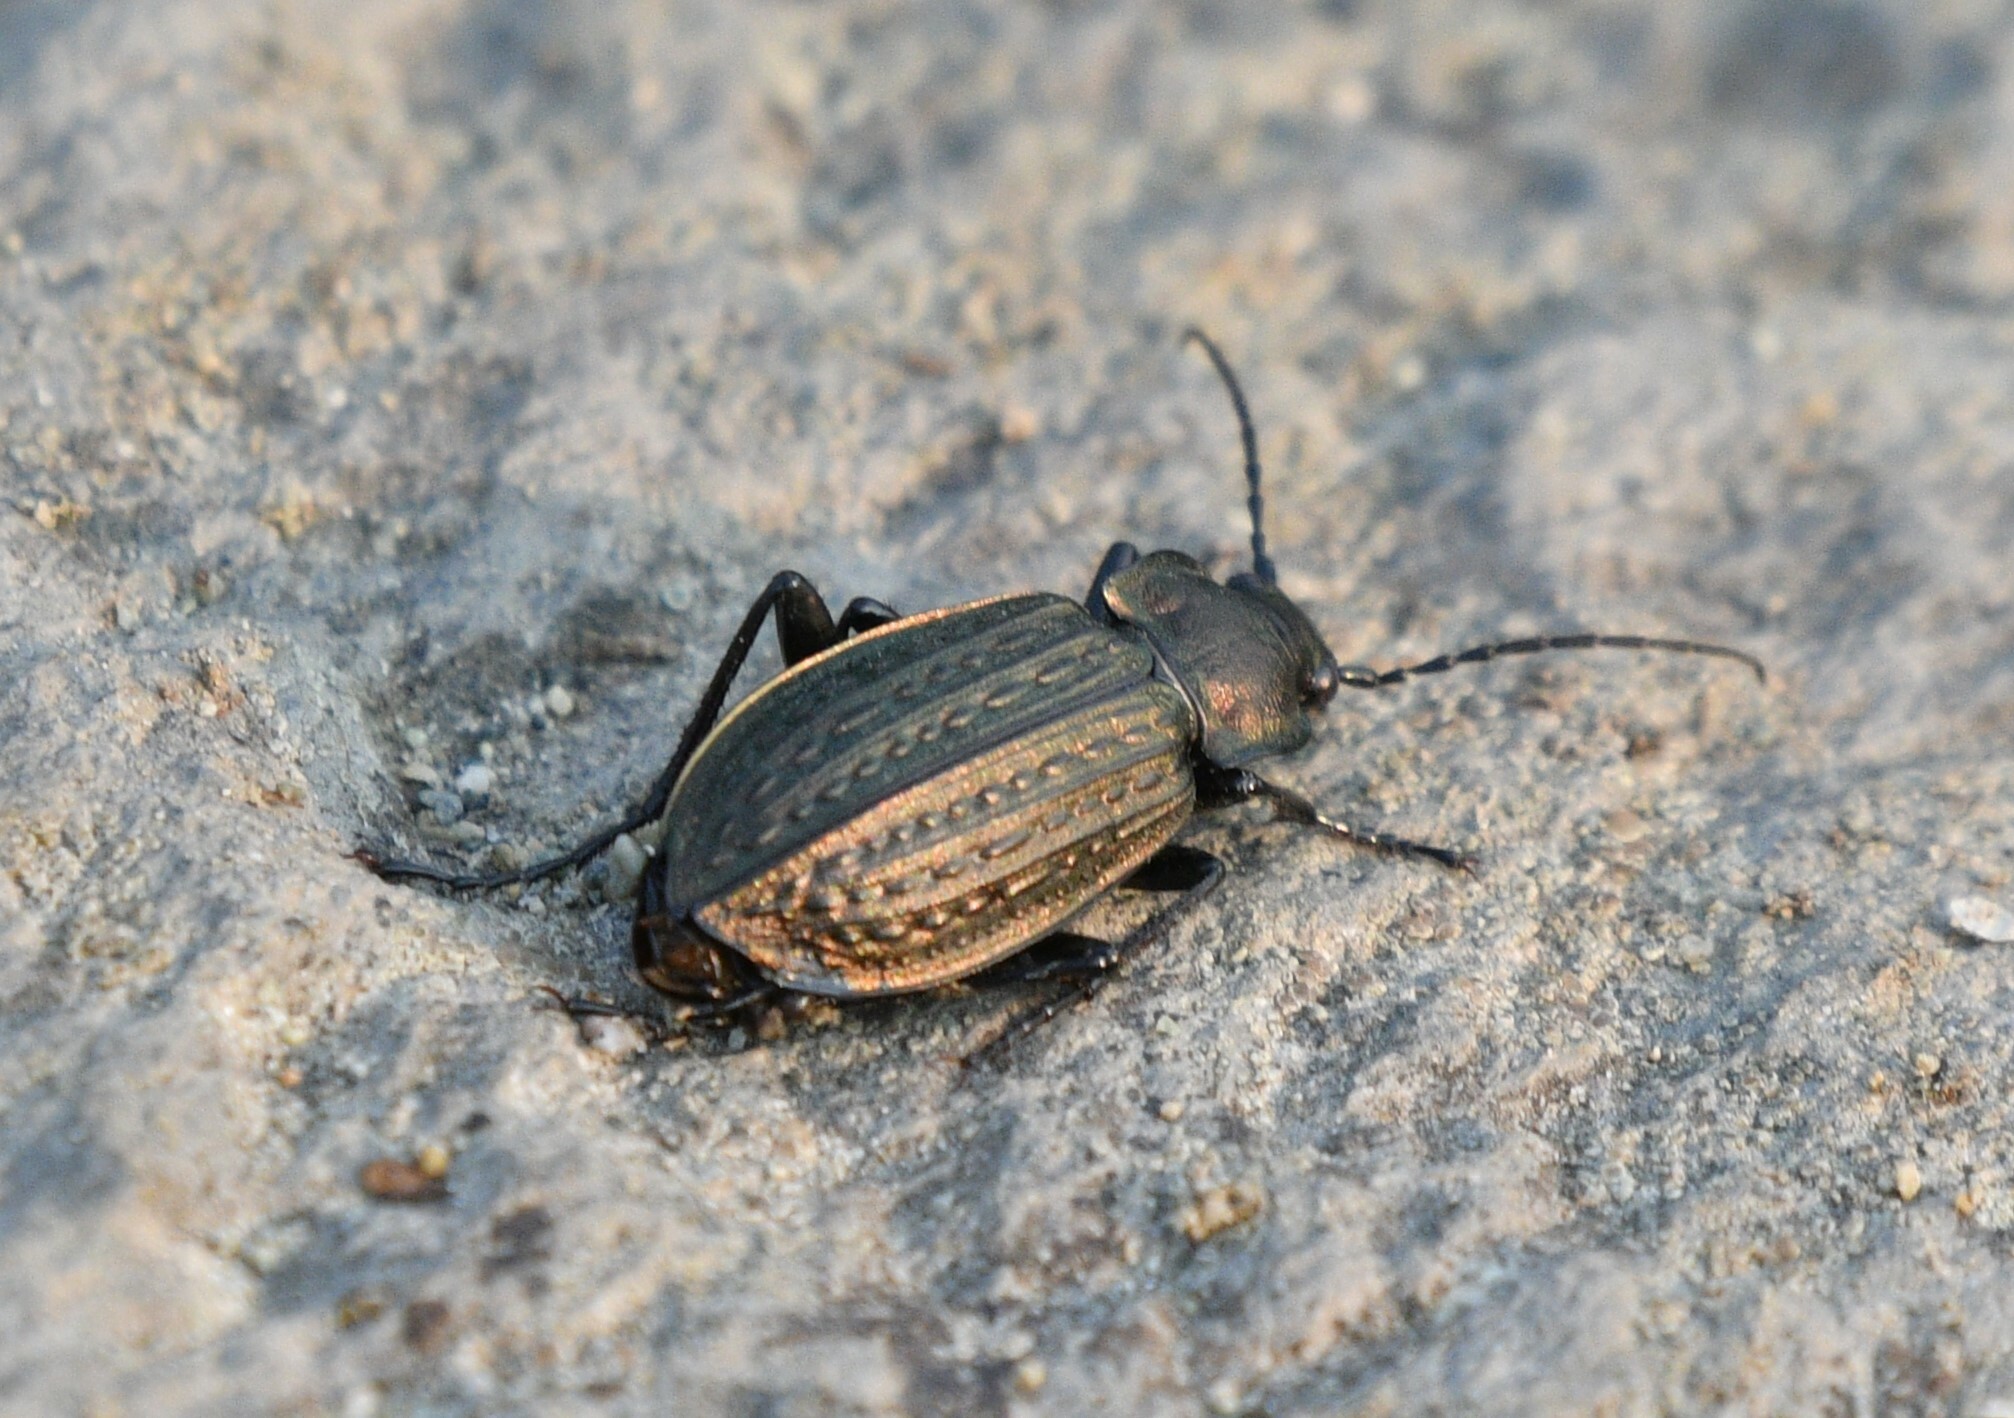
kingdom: Animalia
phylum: Arthropoda
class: Insecta
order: Coleoptera
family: Carabidae
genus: Carabus
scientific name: Carabus granulatus
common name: Granulate ground beetle
